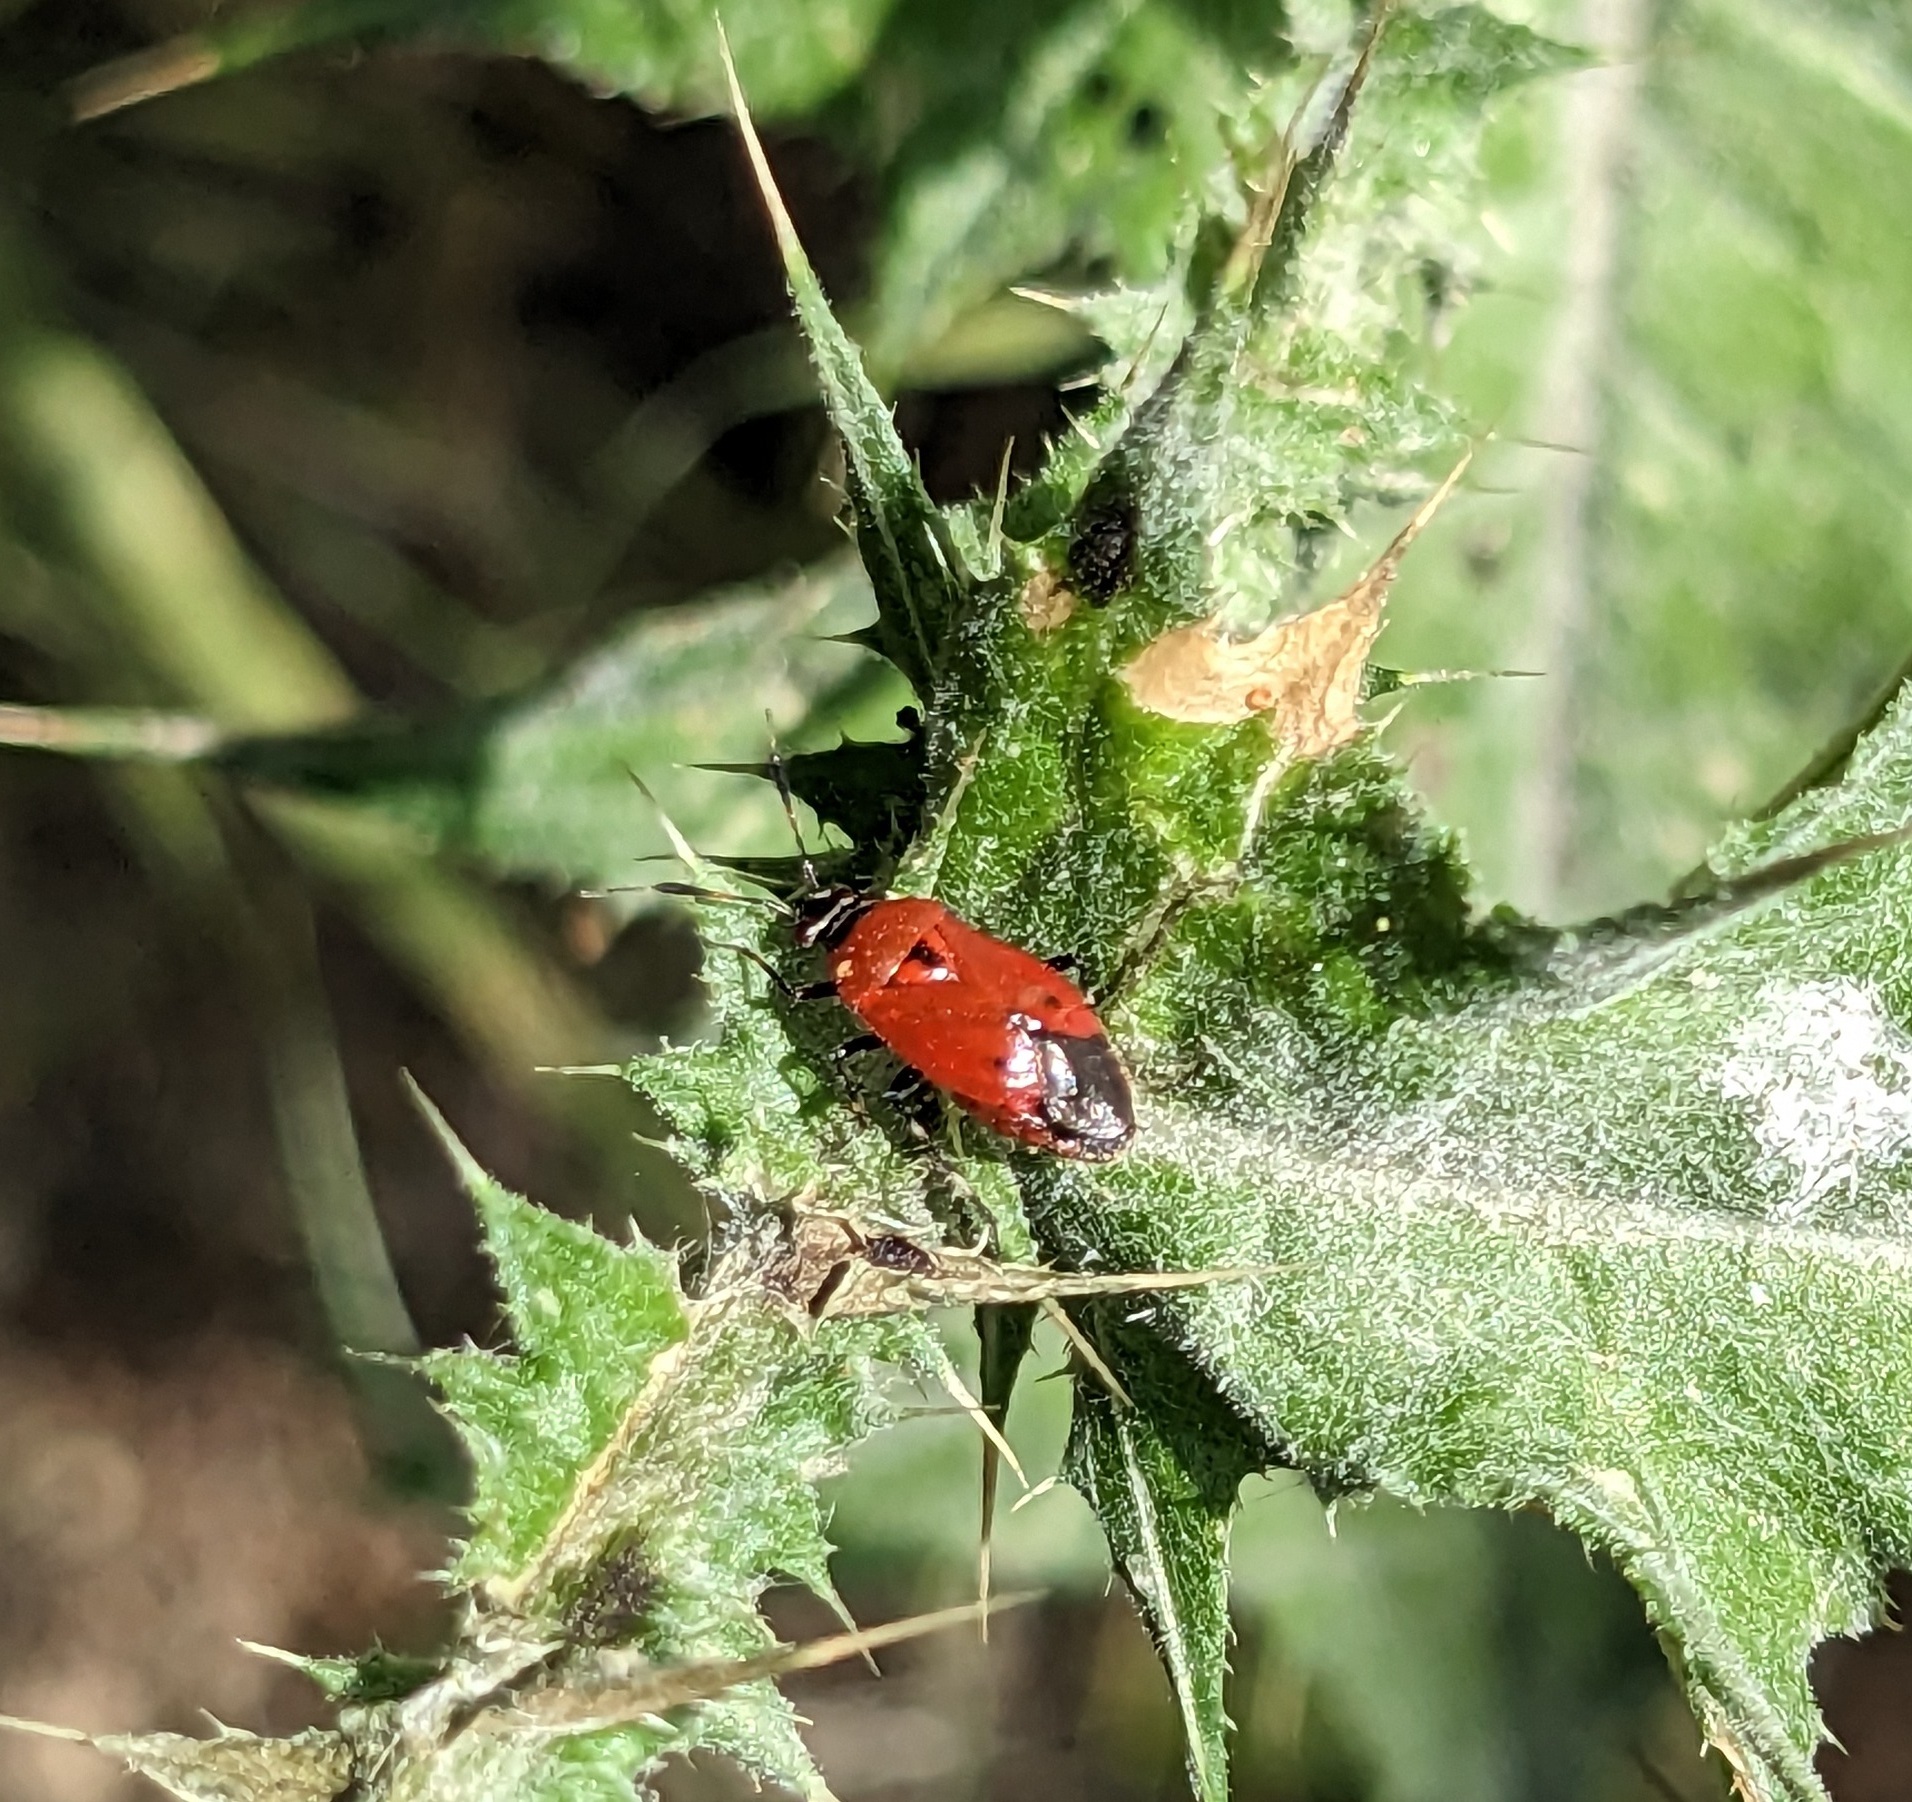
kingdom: Animalia
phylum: Arthropoda
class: Insecta
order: Hemiptera
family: Miridae
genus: Deraeocoris
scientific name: Deraeocoris punctum
